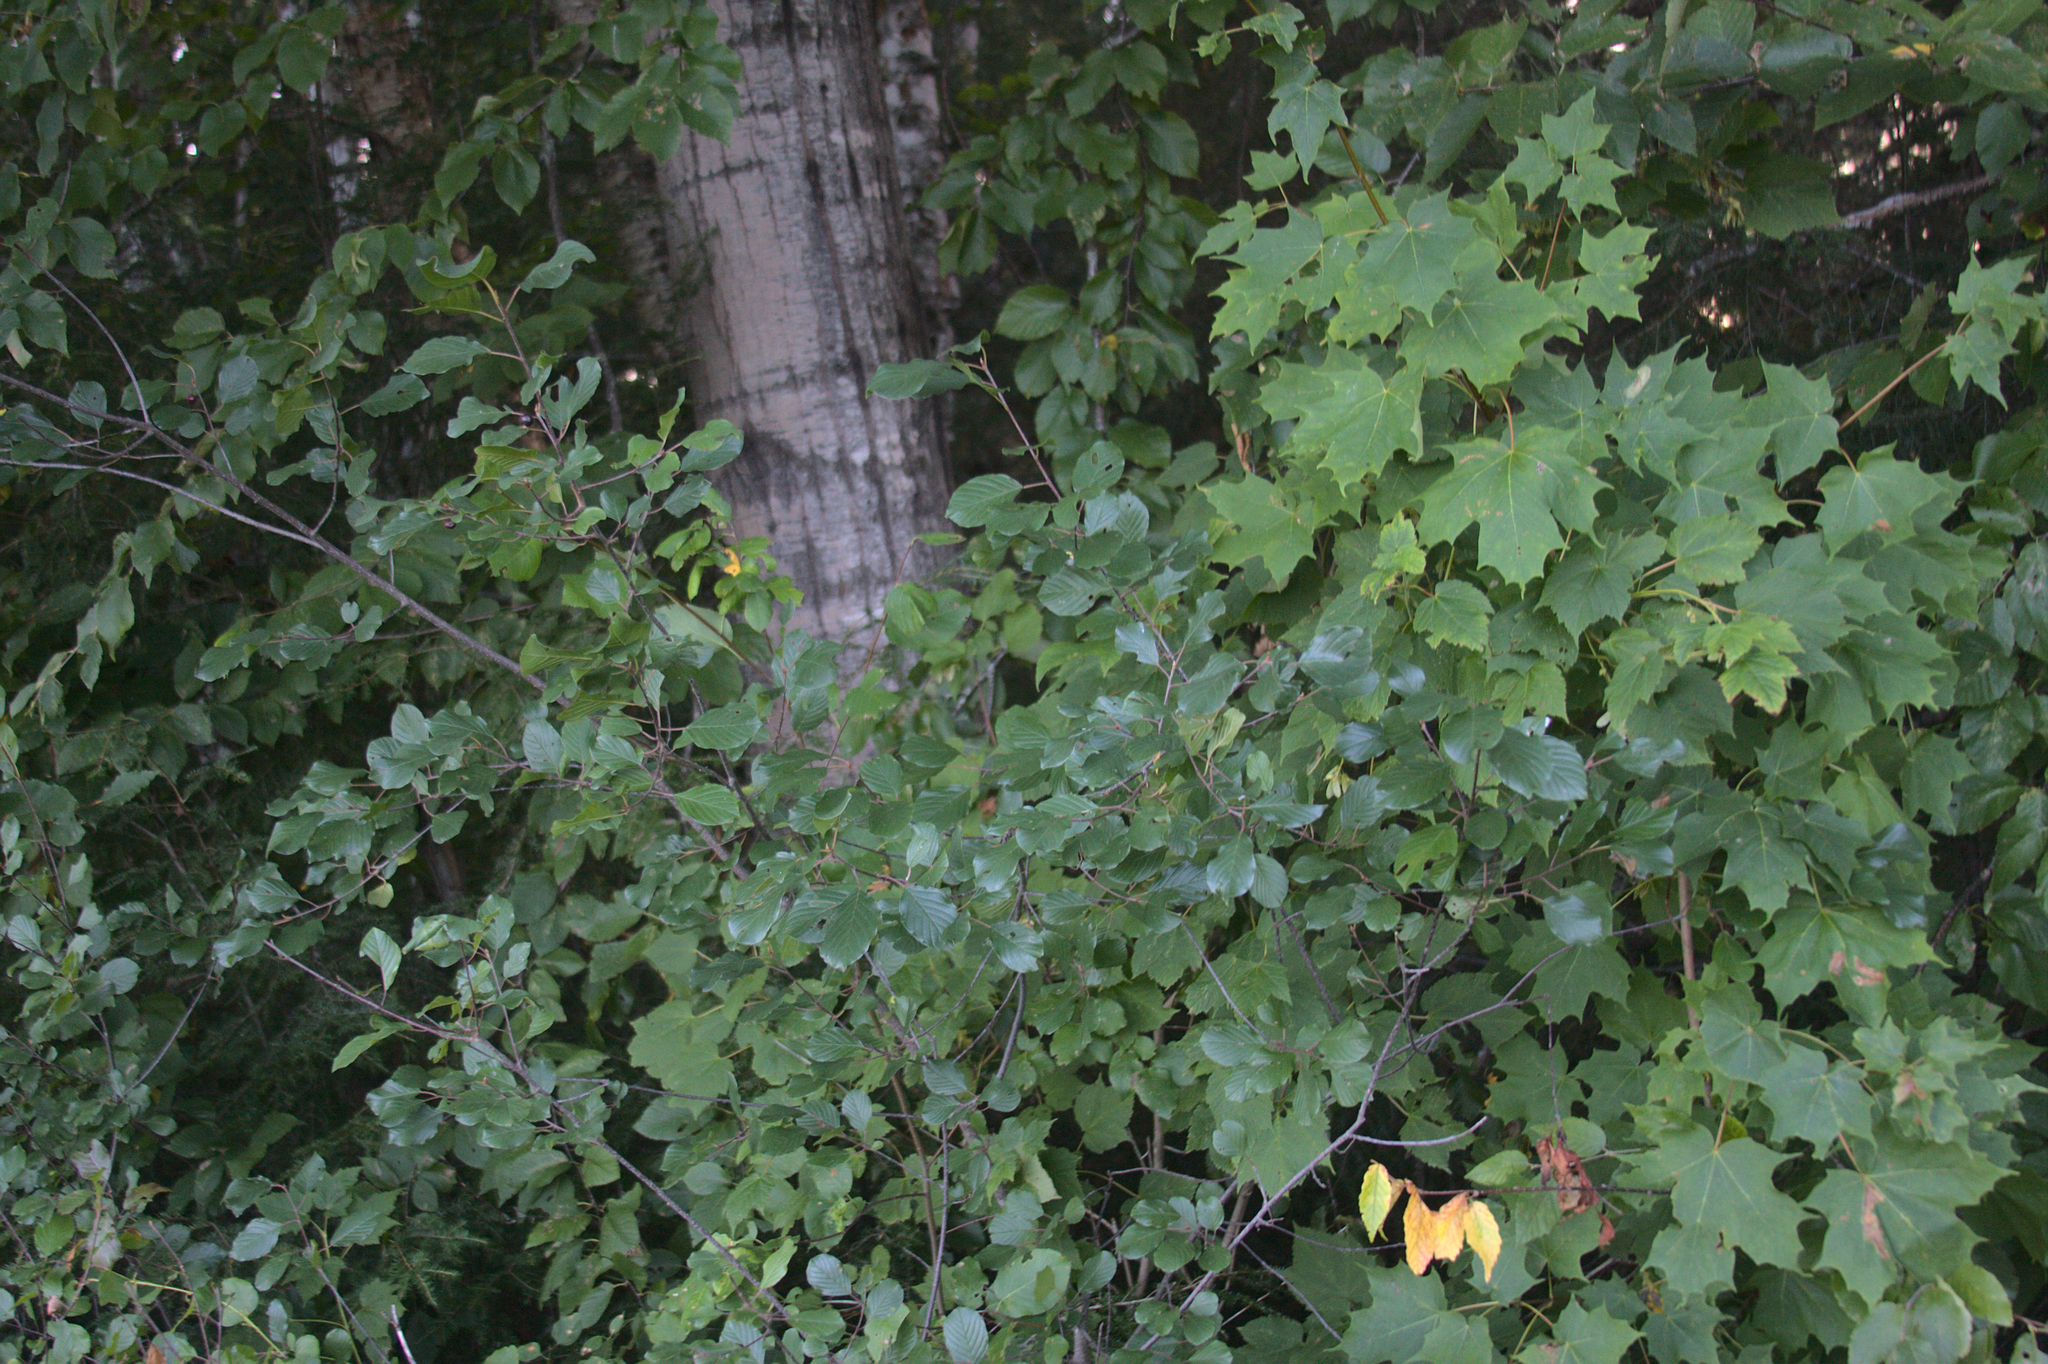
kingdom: Plantae
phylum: Tracheophyta
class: Magnoliopsida
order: Rosales
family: Rhamnaceae
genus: Frangula
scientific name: Frangula alnus
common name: Alder buckthorn
